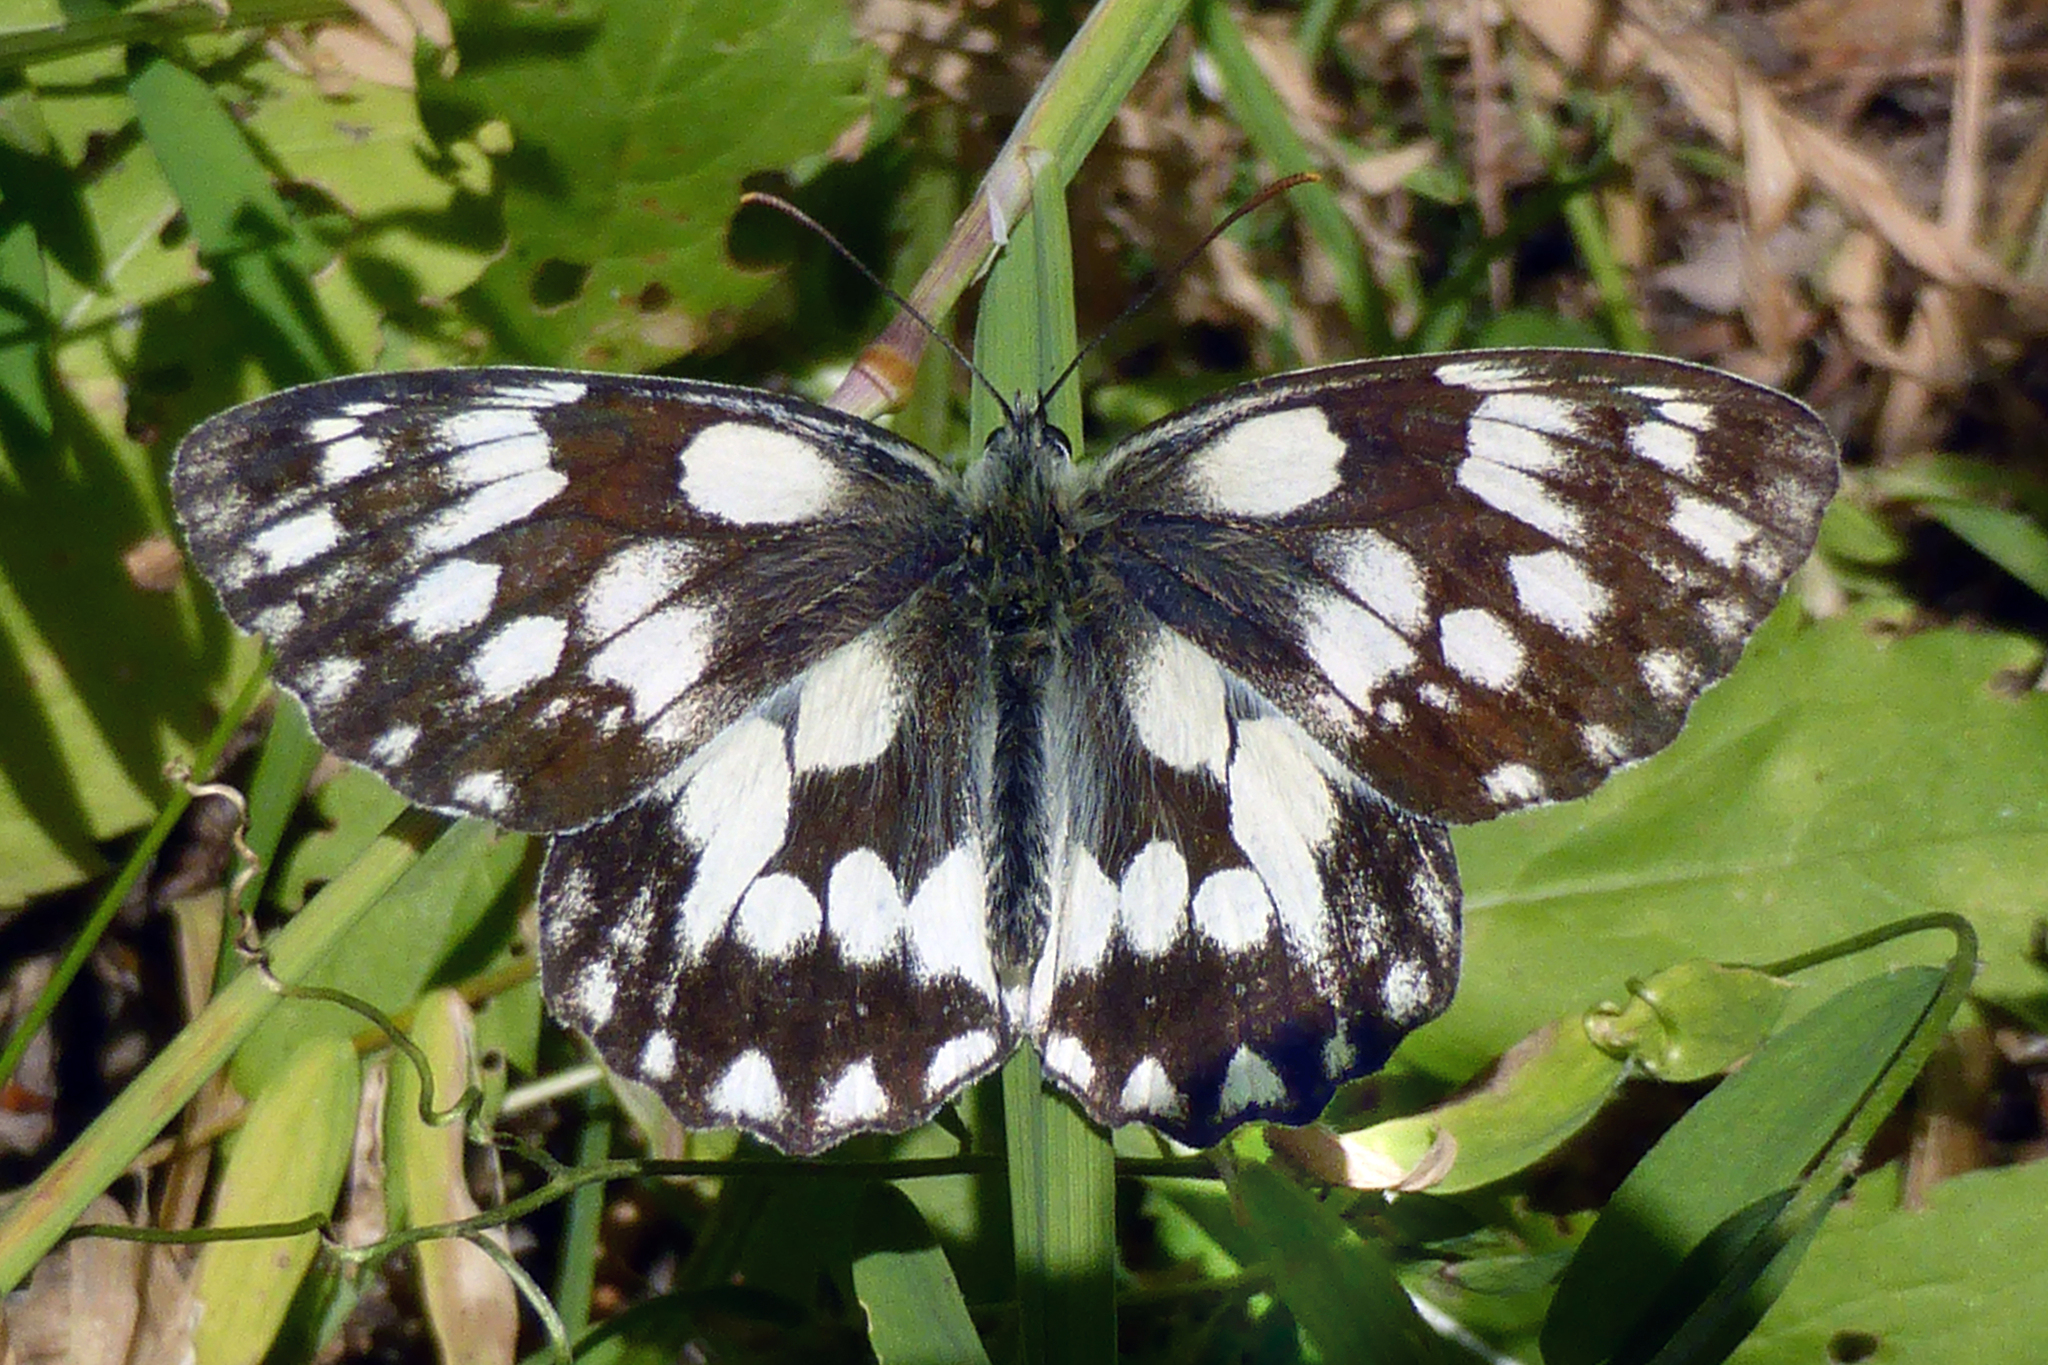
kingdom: Animalia
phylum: Arthropoda
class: Insecta
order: Lepidoptera
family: Nymphalidae
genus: Melanargia
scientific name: Melanargia galathea
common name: Marbled white
